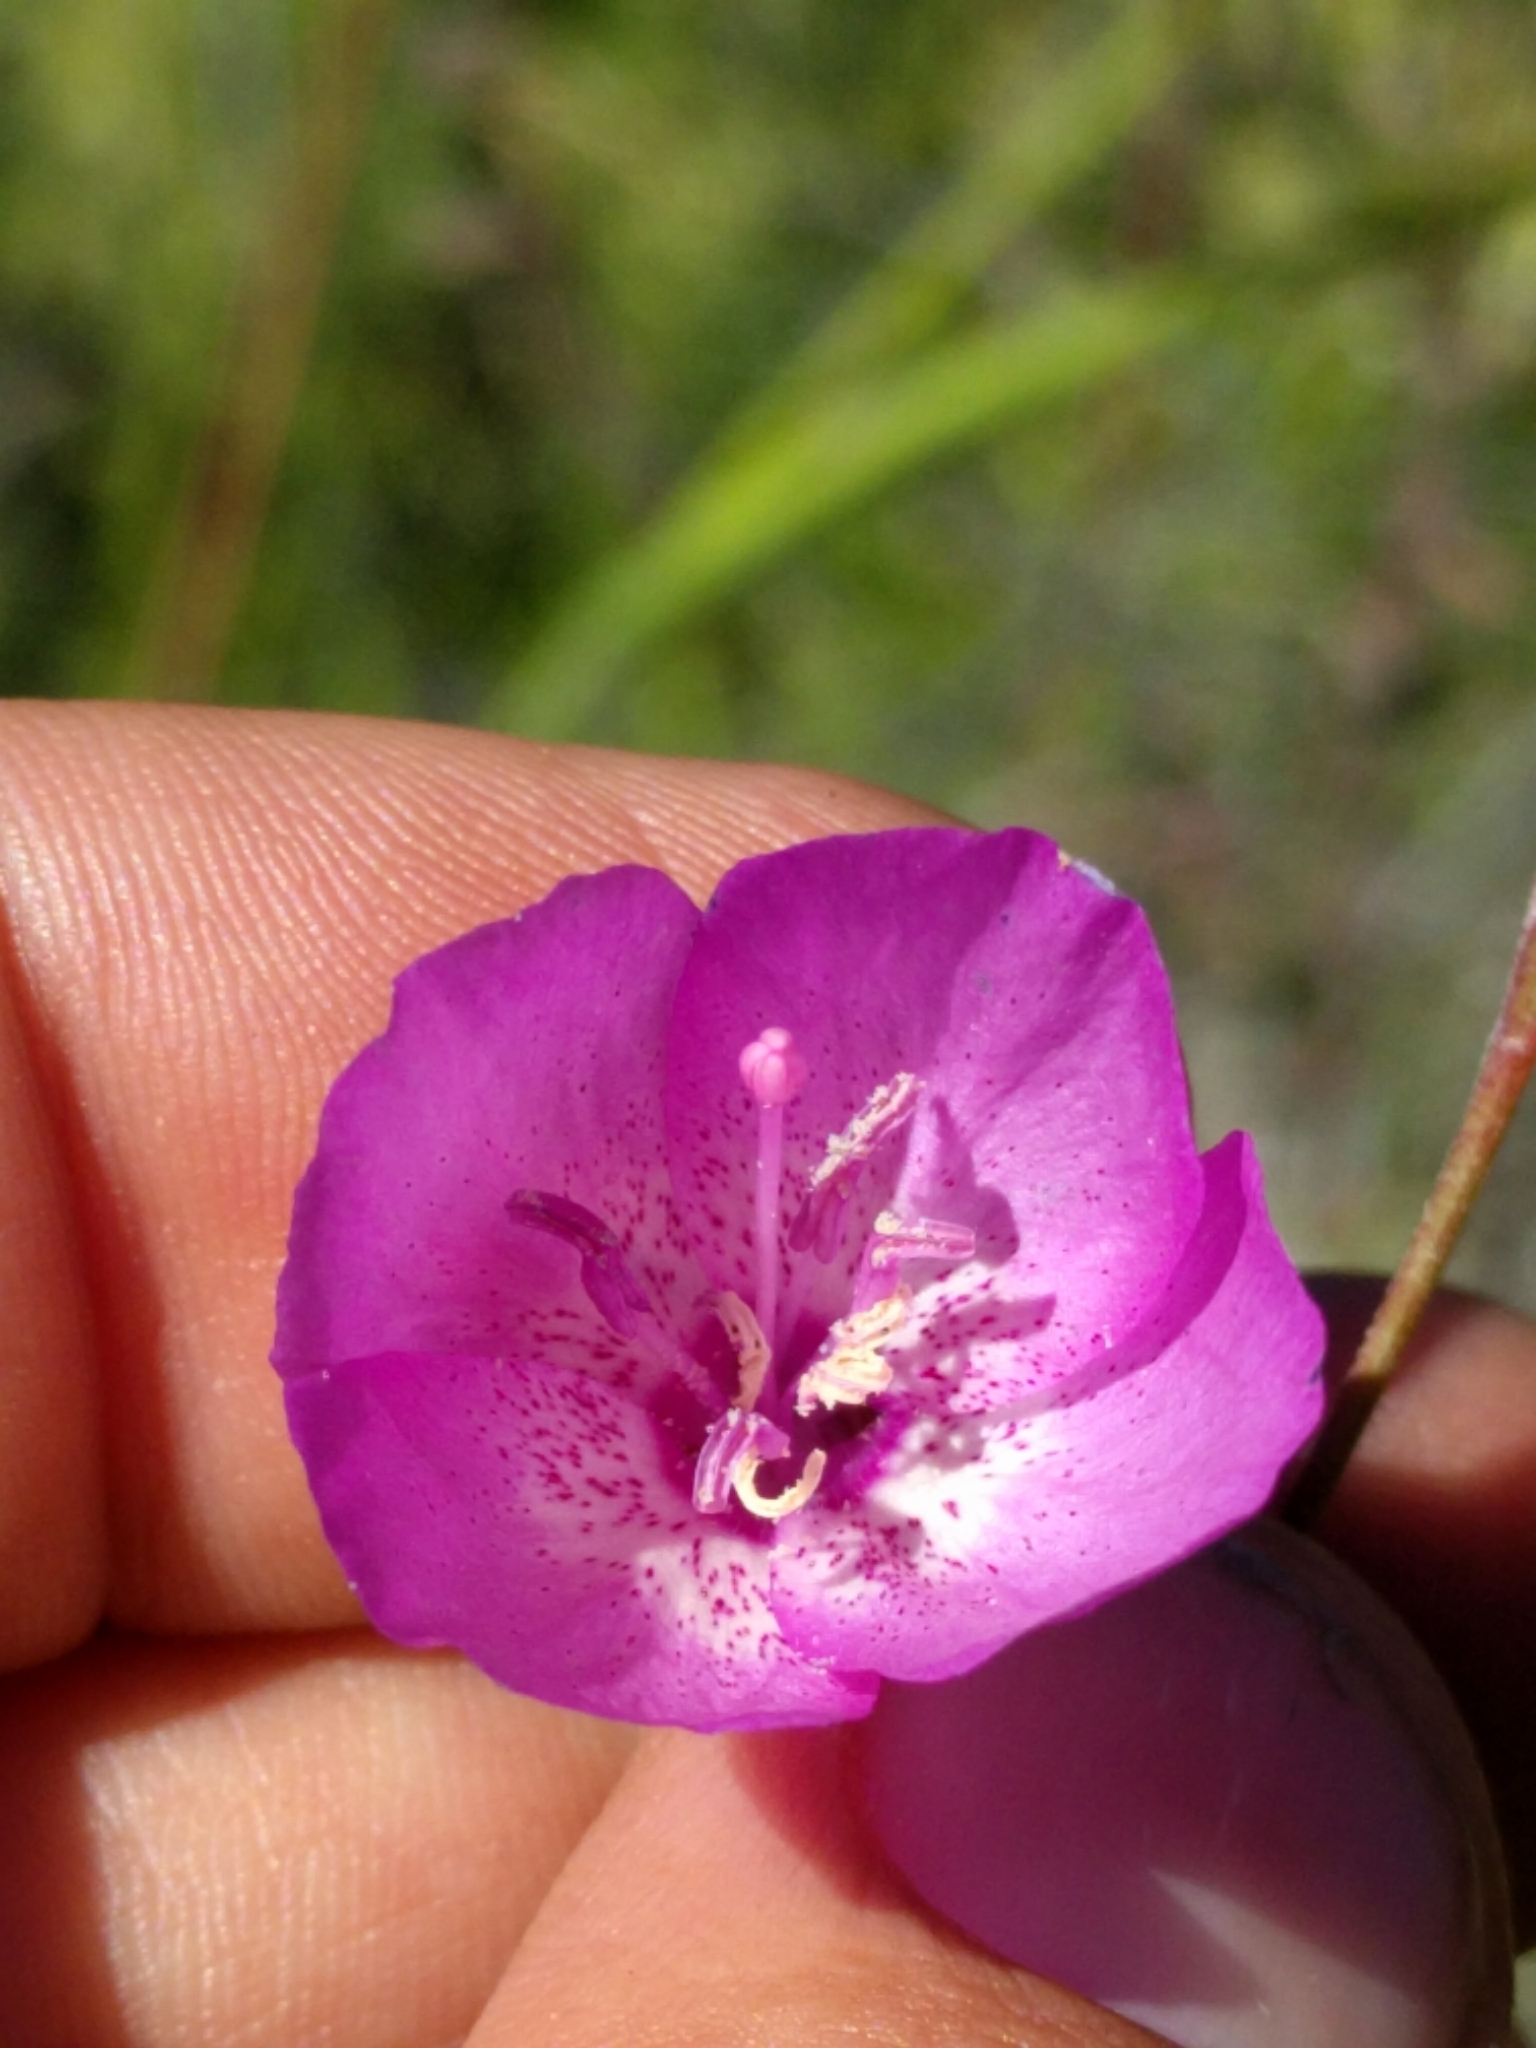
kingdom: Plantae
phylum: Tracheophyta
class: Magnoliopsida
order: Myrtales
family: Onagraceae
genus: Clarkia
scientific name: Clarkia cylindrica
